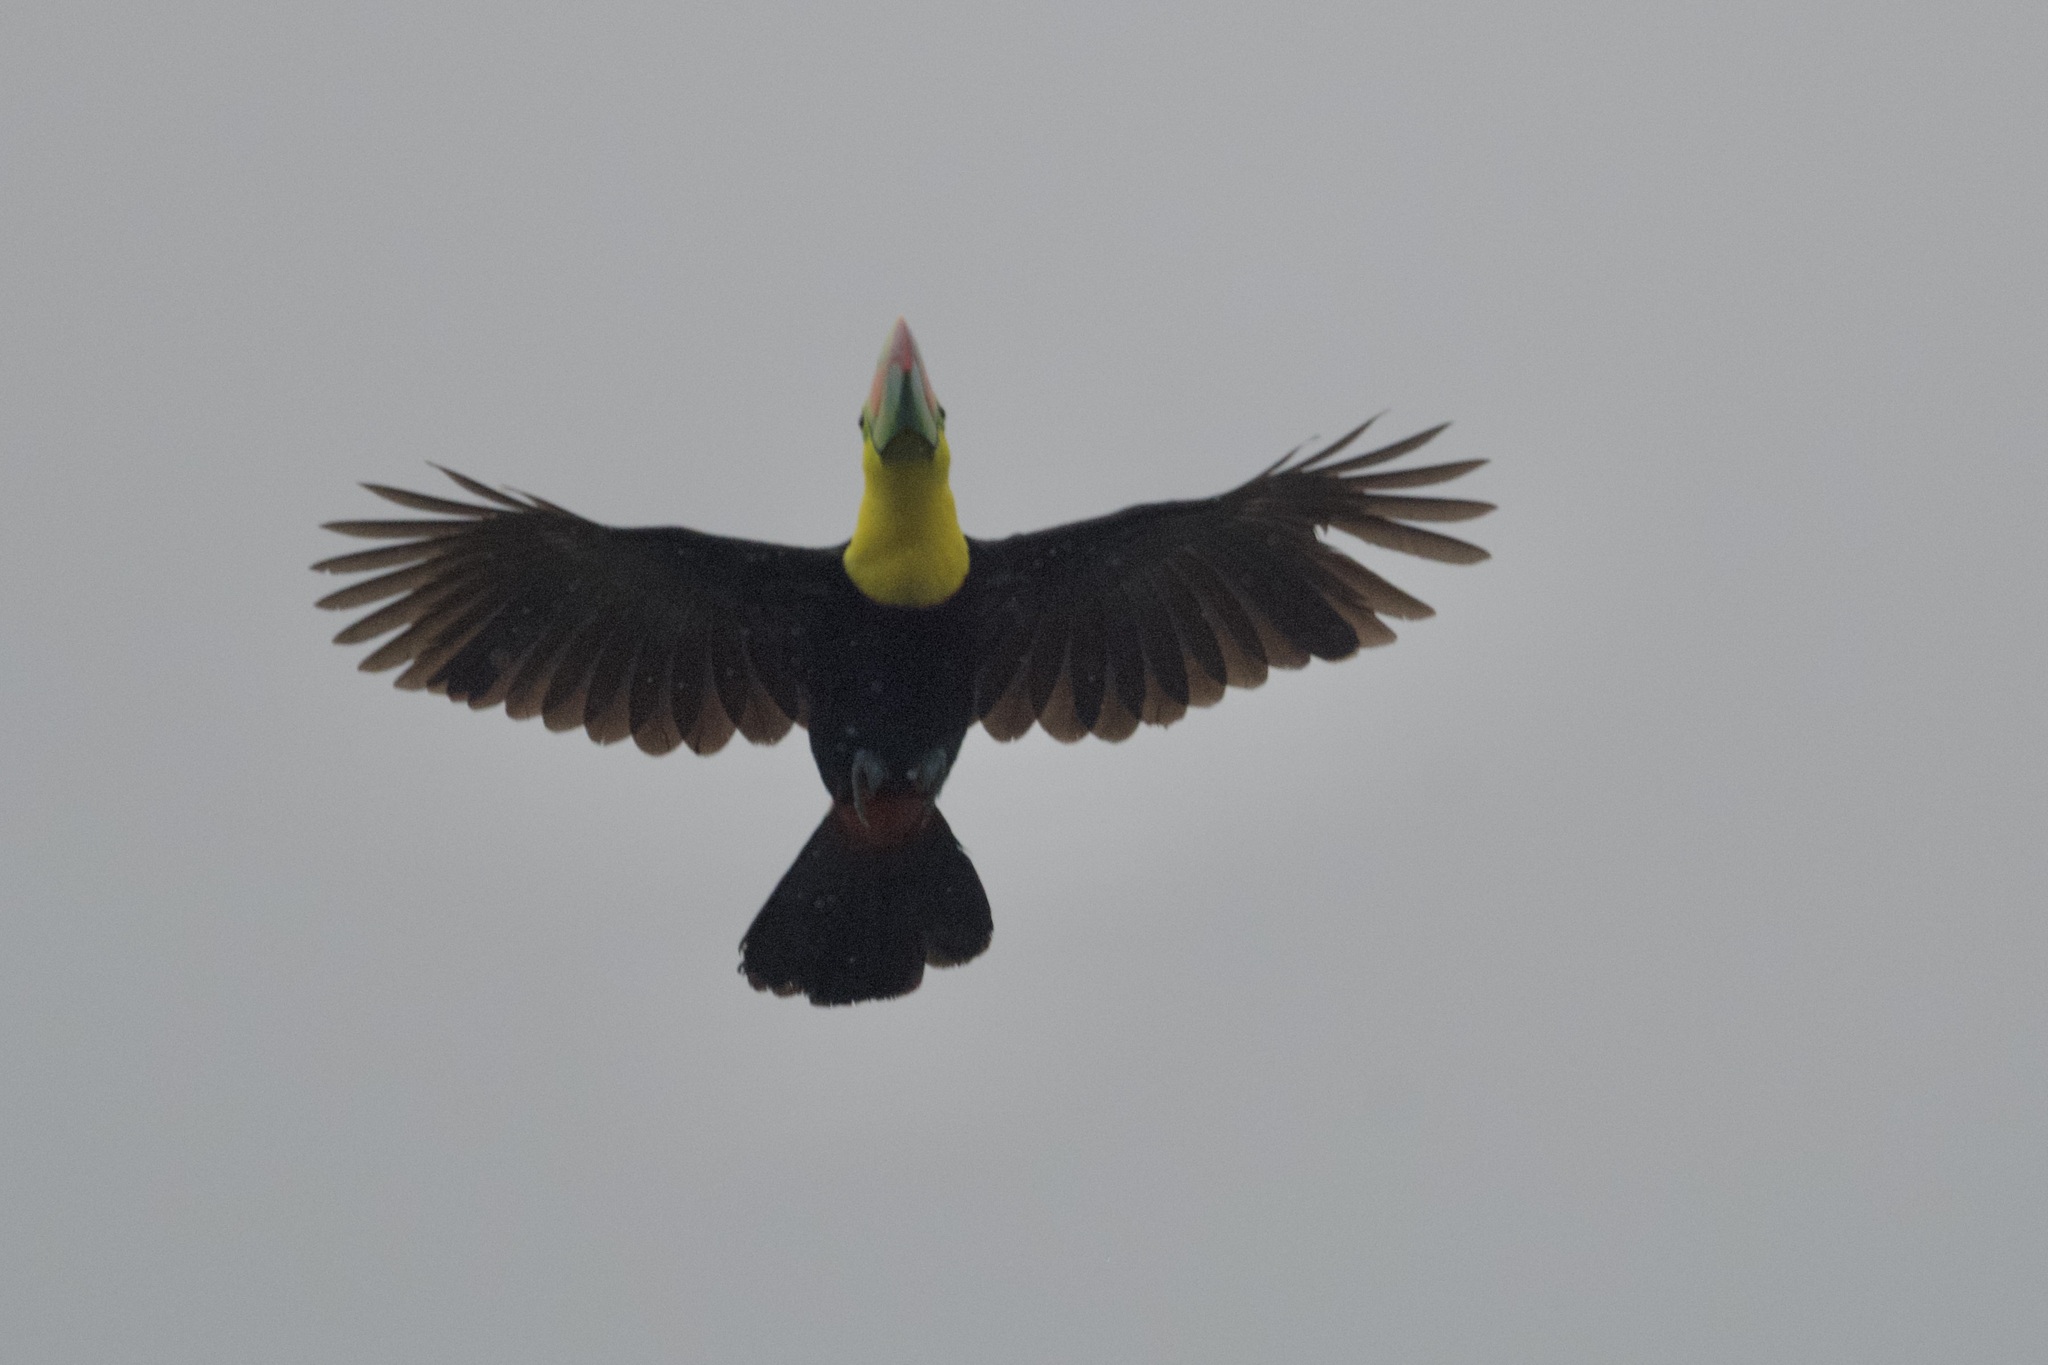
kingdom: Animalia
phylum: Chordata
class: Aves
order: Piciformes
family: Ramphastidae
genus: Ramphastos
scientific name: Ramphastos sulfuratus
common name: Keel-billed toucan
